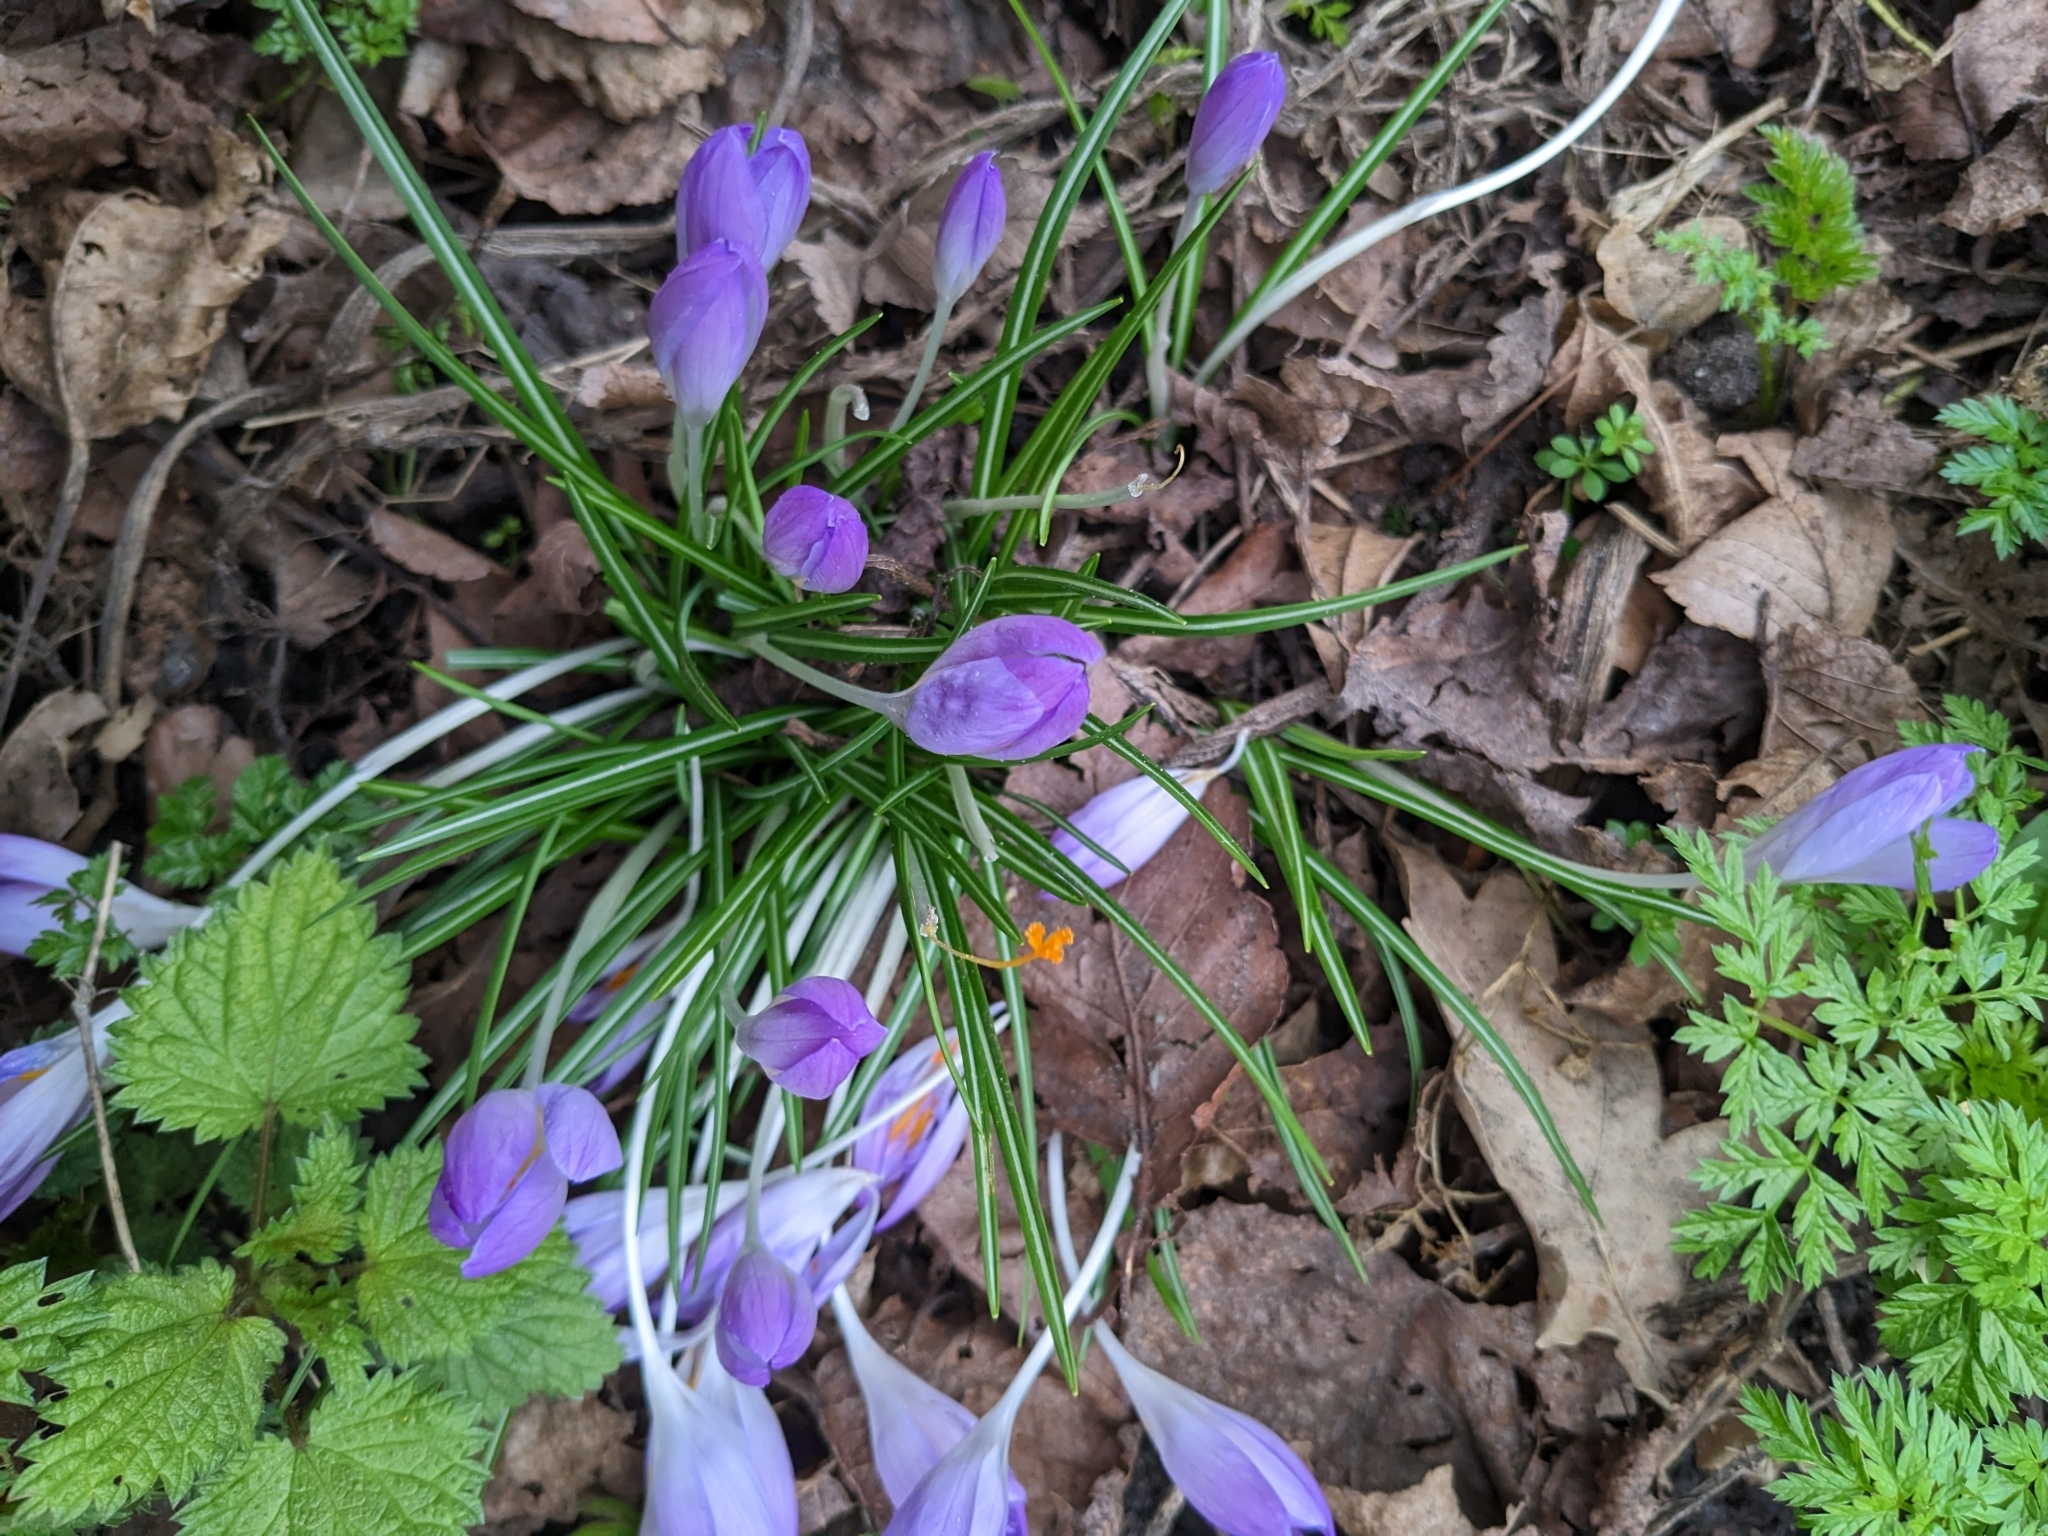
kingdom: Plantae
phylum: Tracheophyta
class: Liliopsida
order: Asparagales
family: Iridaceae
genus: Crocus
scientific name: Crocus tommasinianus
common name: Early crocus
